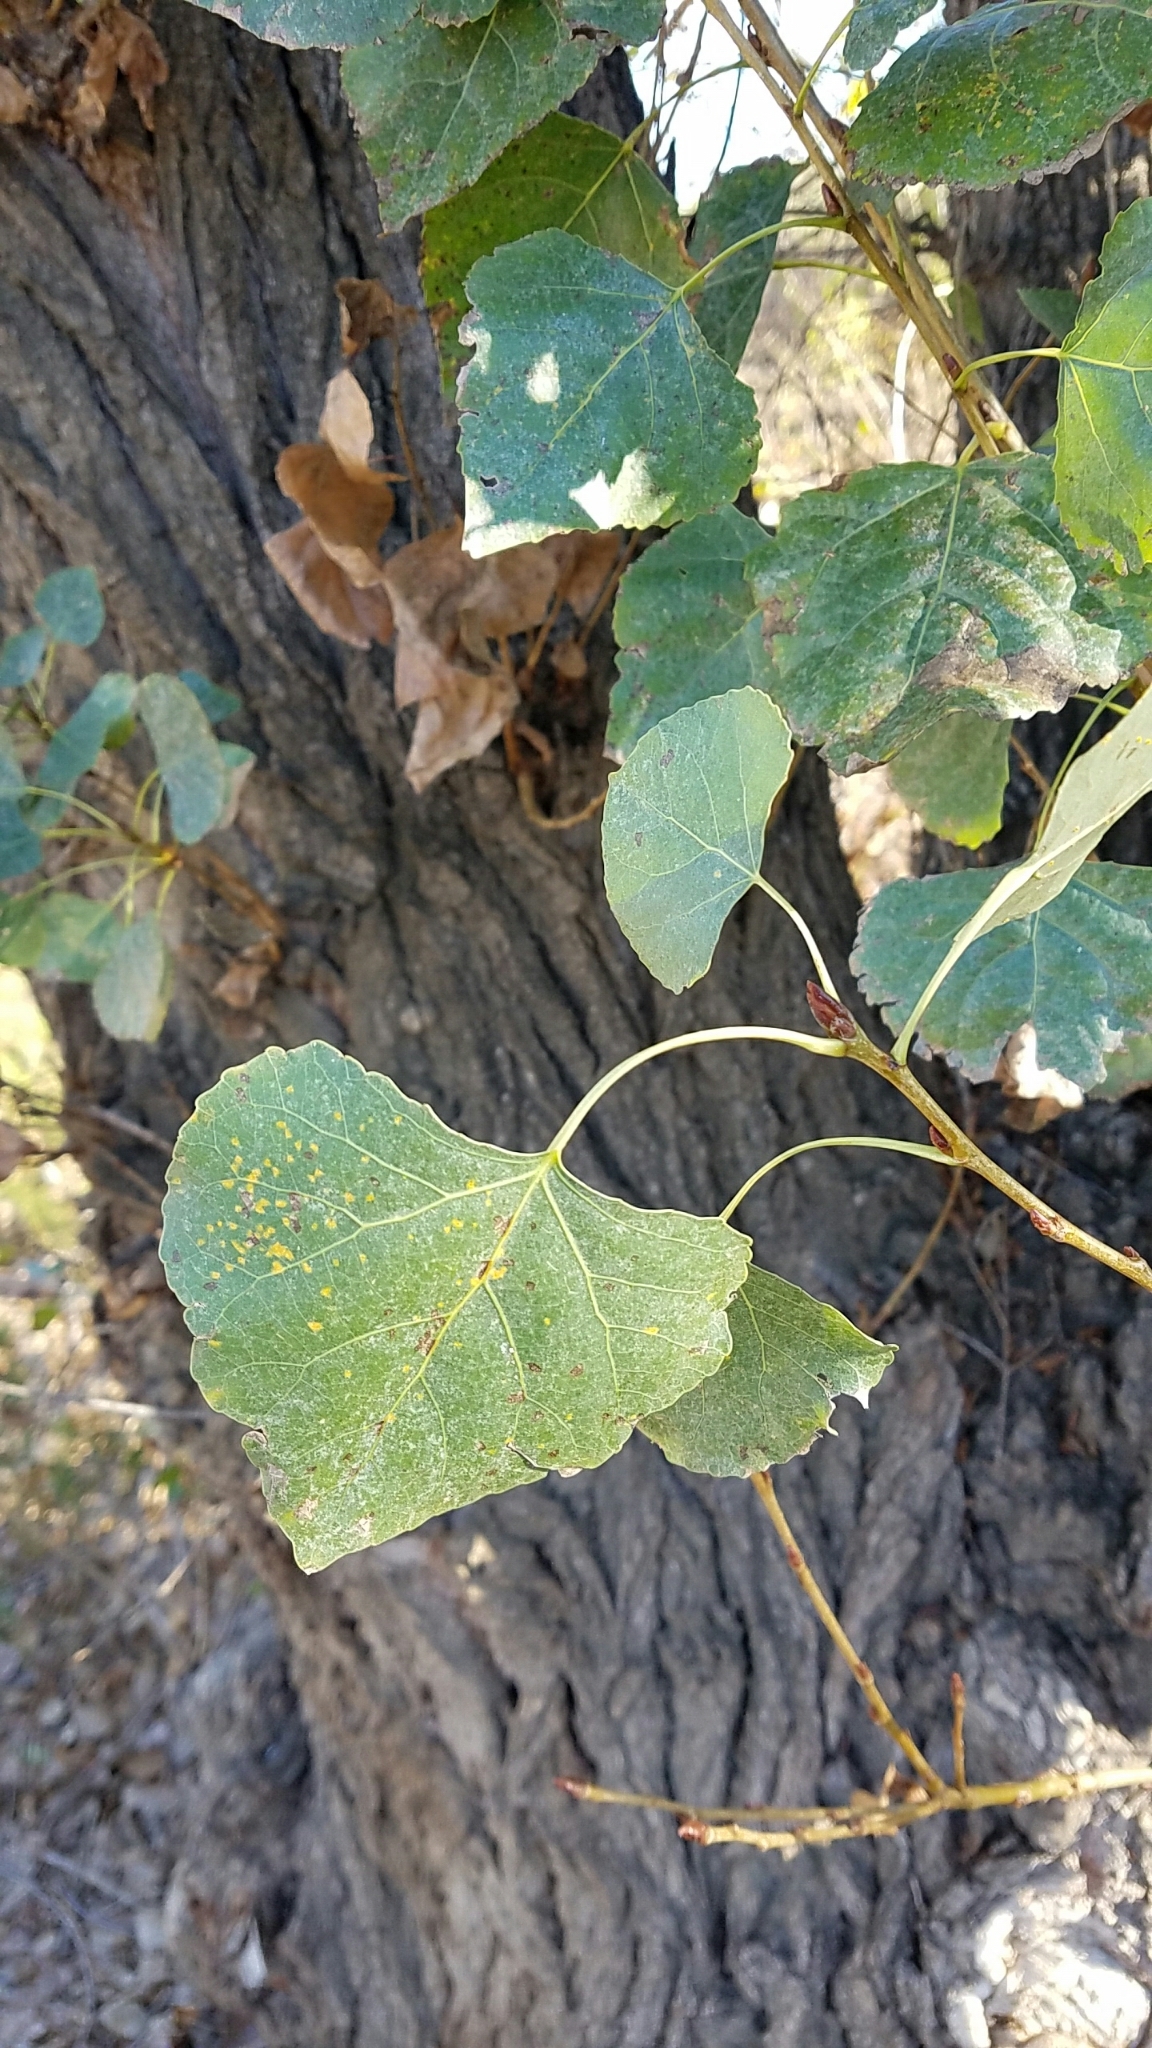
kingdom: Plantae
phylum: Tracheophyta
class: Magnoliopsida
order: Malpighiales
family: Salicaceae
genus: Populus
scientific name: Populus fremontii
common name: Fremont's cottonwood
